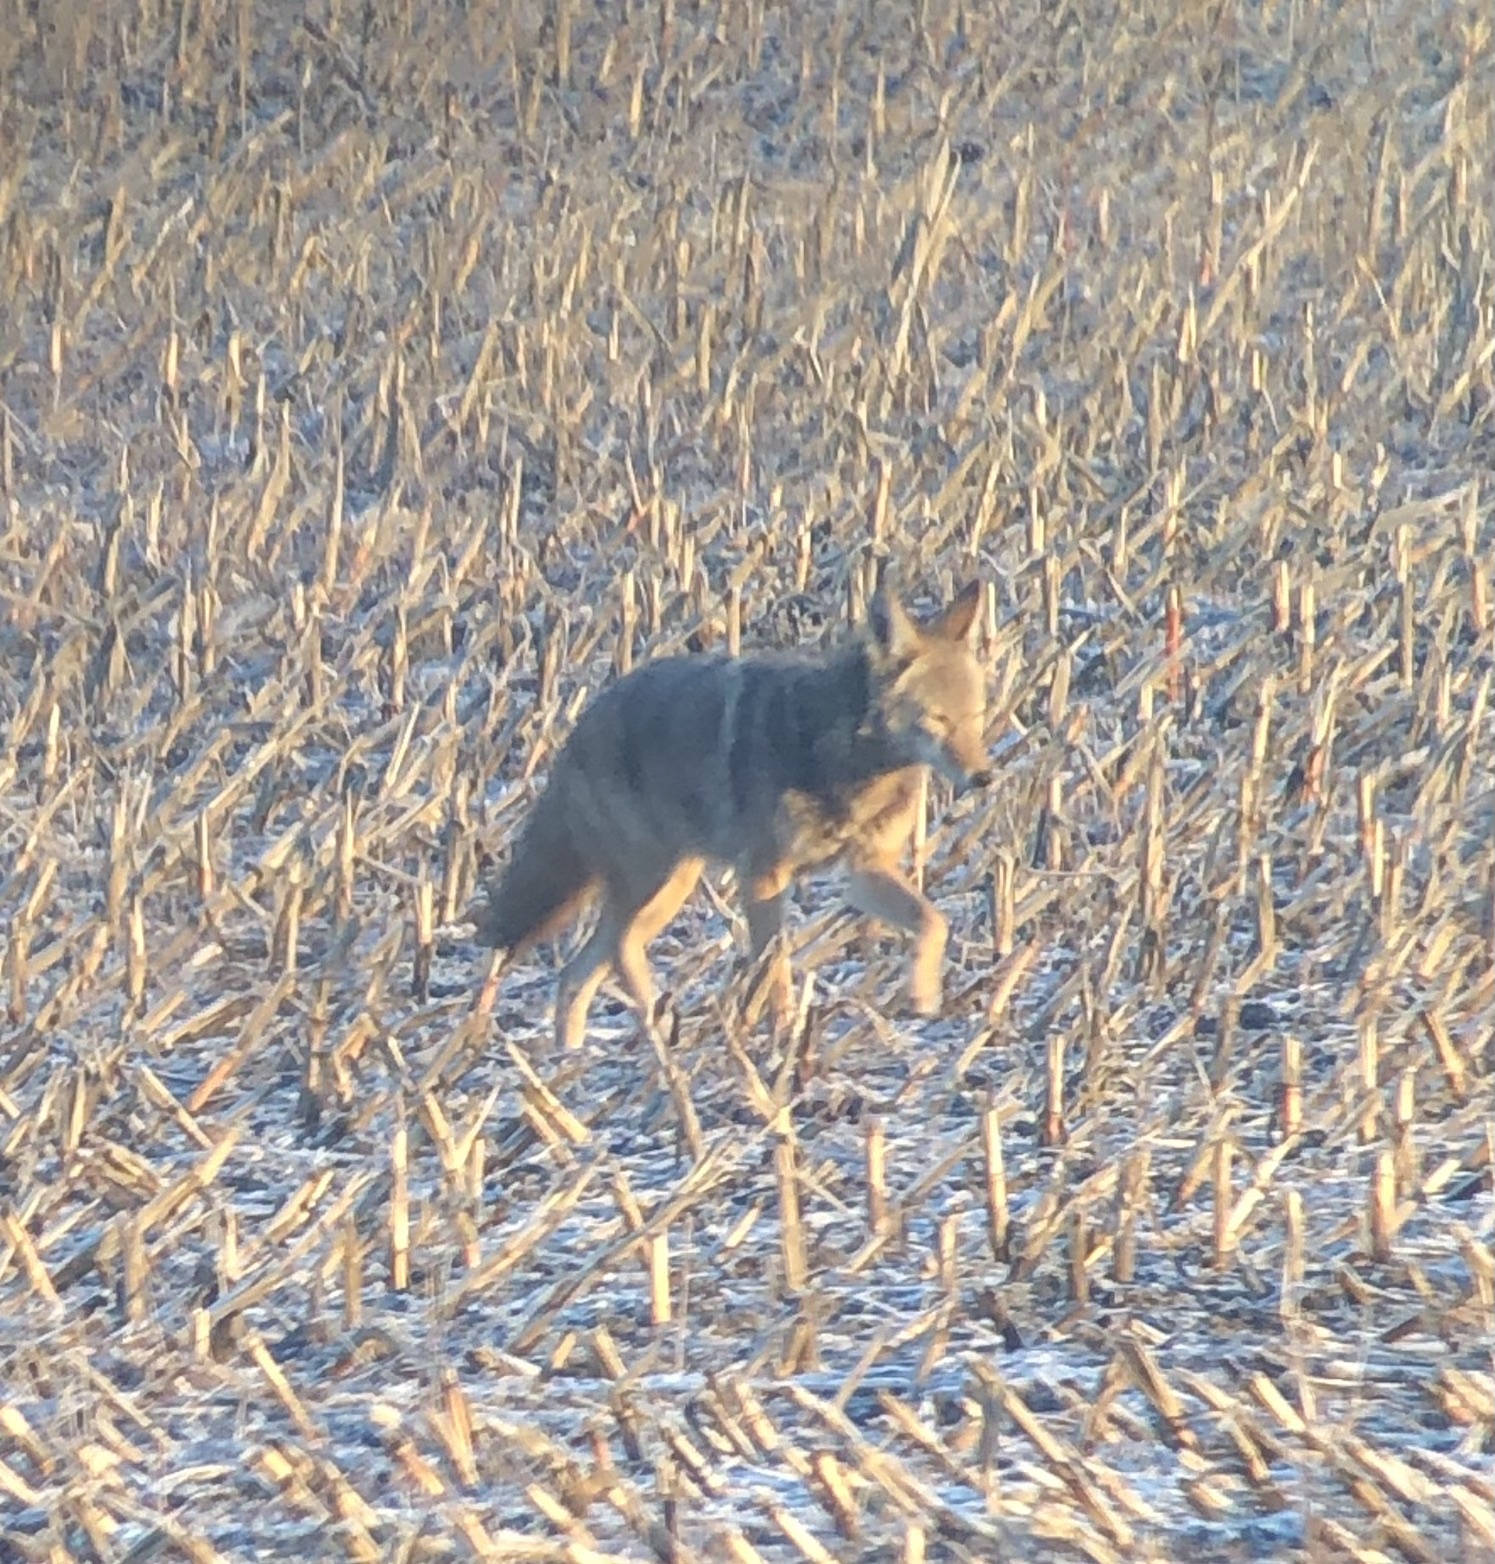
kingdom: Animalia
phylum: Chordata
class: Mammalia
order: Carnivora
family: Canidae
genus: Canis
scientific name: Canis latrans
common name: Coyote
